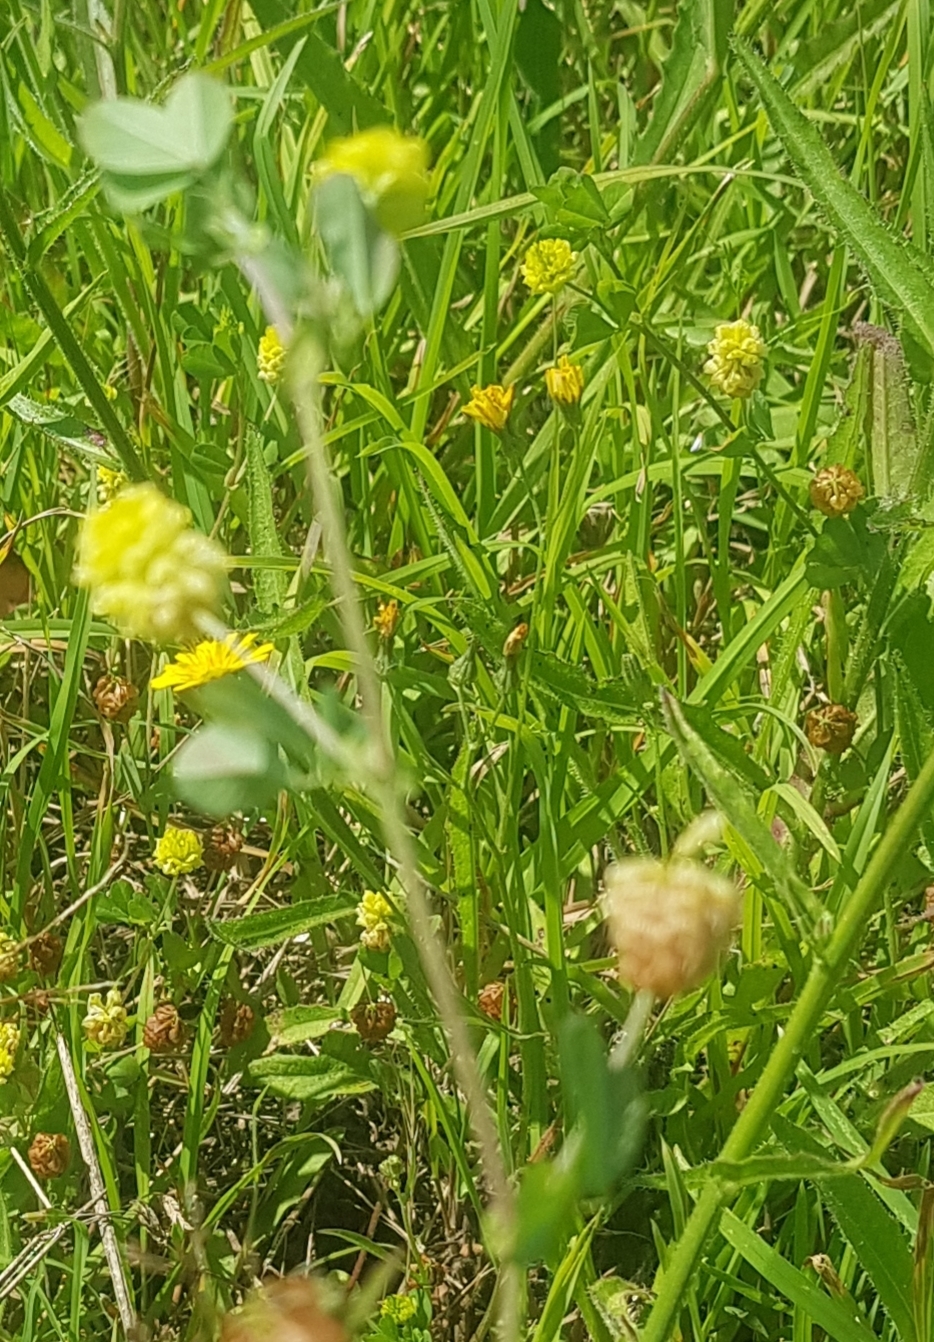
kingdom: Plantae
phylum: Tracheophyta
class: Magnoliopsida
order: Fabales
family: Fabaceae
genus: Trifolium
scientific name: Trifolium campestre
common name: Field clover
